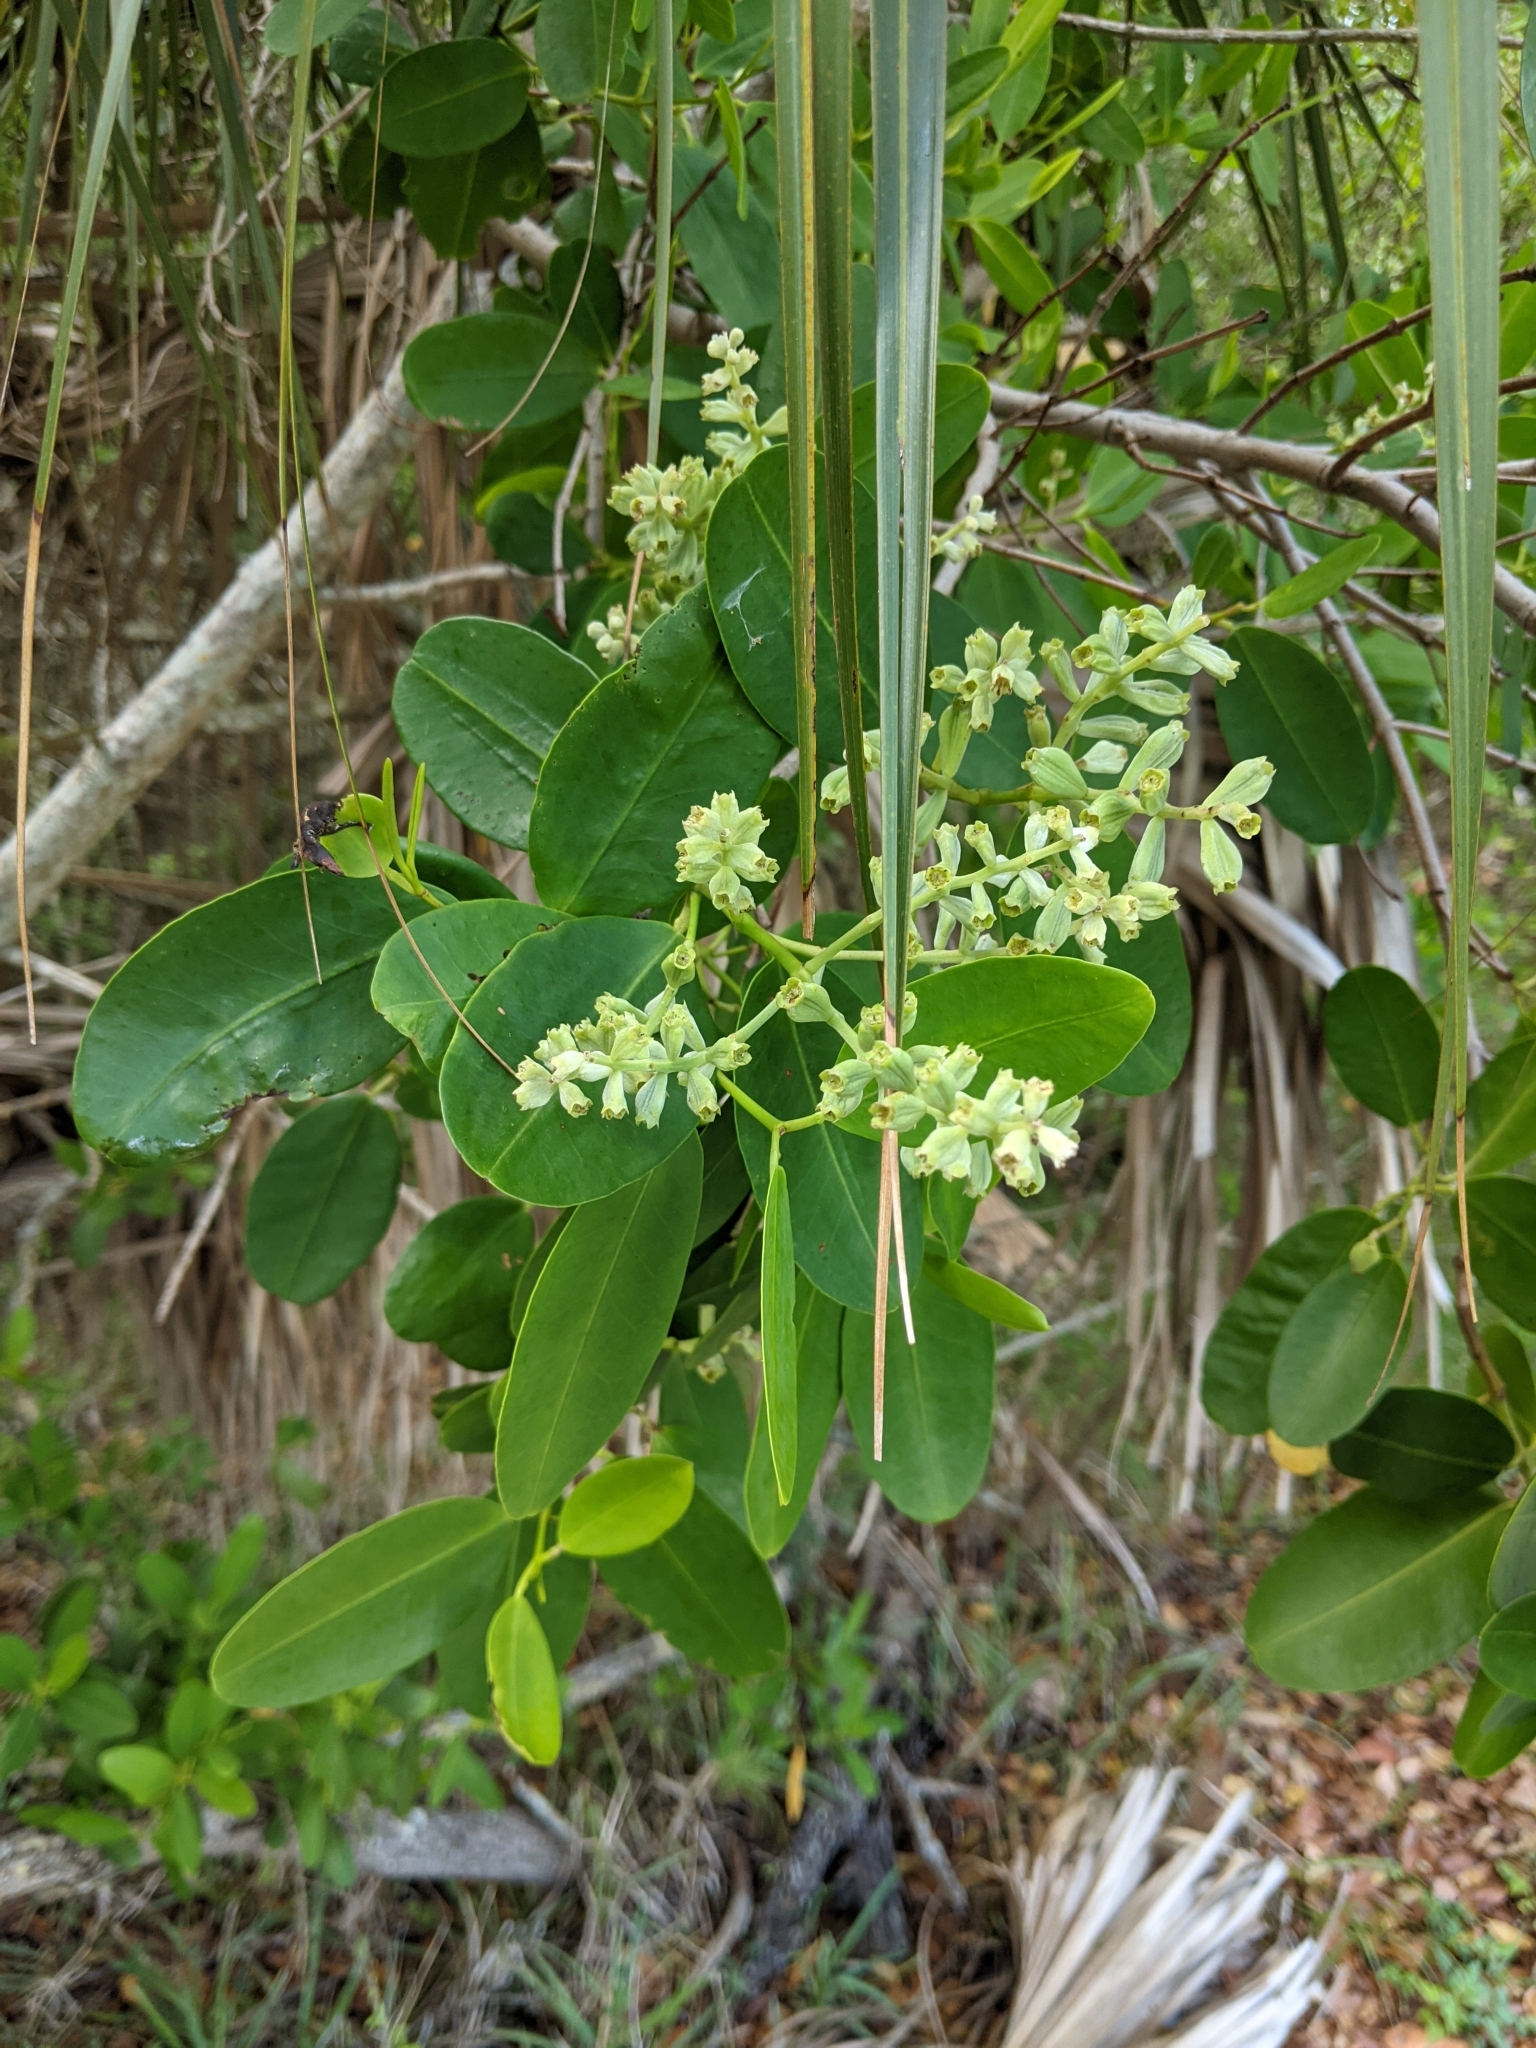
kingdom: Plantae
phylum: Tracheophyta
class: Magnoliopsida
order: Myrtales
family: Combretaceae
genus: Laguncularia
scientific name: Laguncularia racemosa
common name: White mangrove
